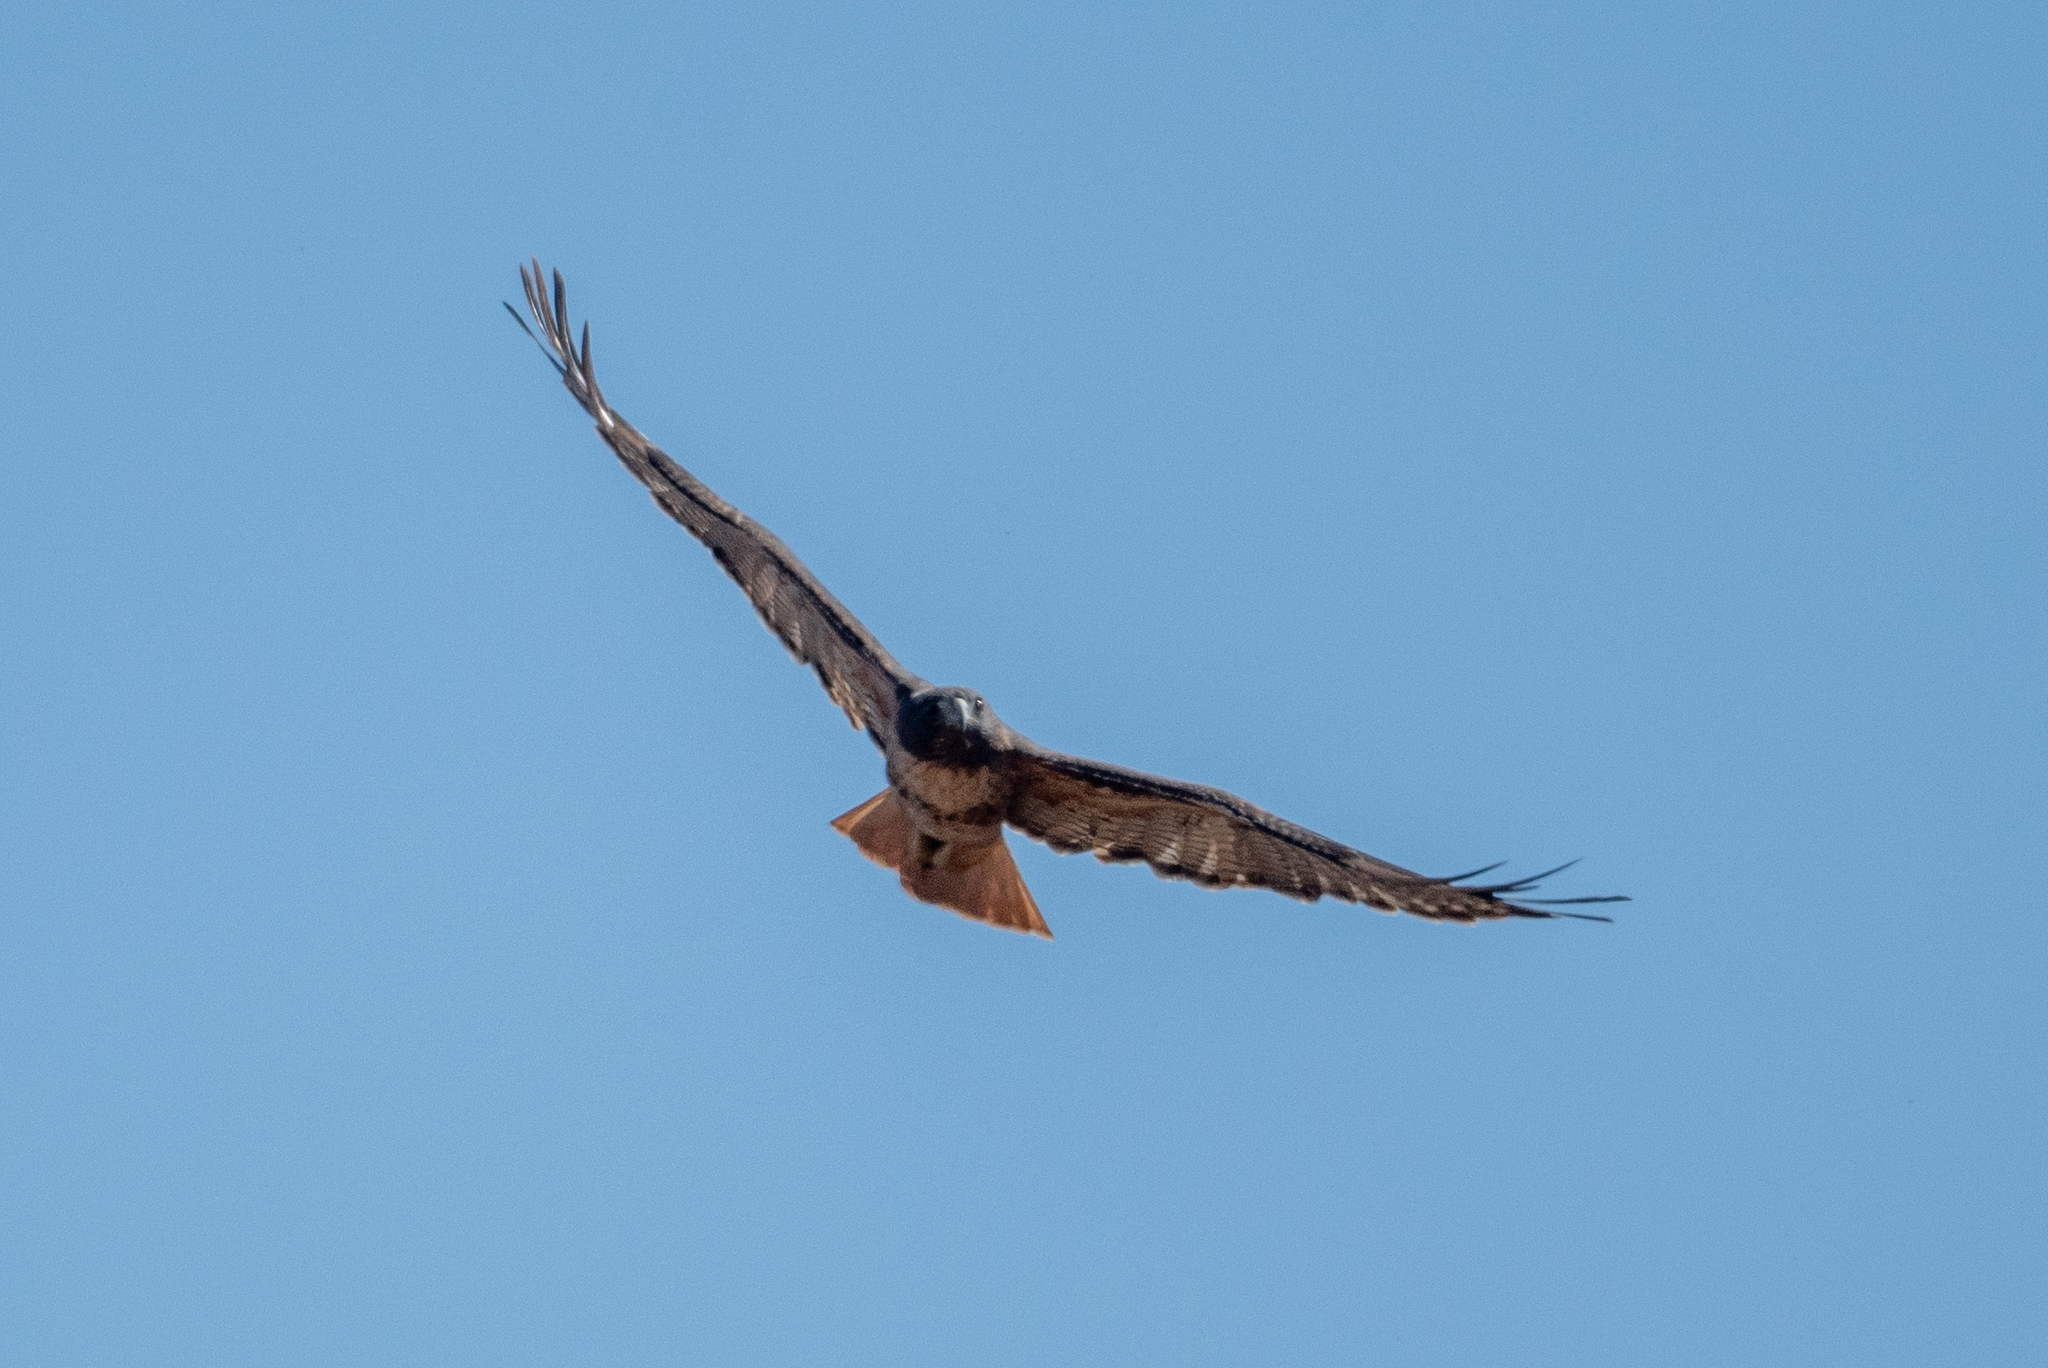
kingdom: Animalia
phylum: Chordata
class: Aves
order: Accipitriformes
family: Accipitridae
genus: Buteo
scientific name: Buteo jamaicensis
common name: Red-tailed hawk
